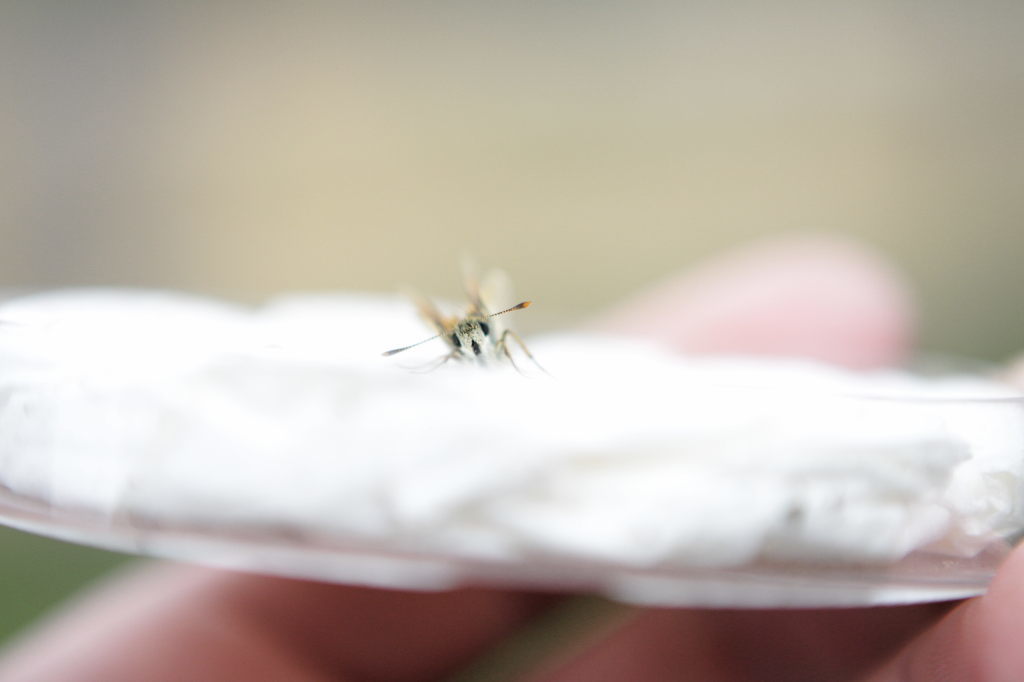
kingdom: Animalia
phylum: Arthropoda
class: Insecta
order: Lepidoptera
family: Hesperiidae
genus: Thymelicus
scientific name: Thymelicus sylvestris
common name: Small skipper
